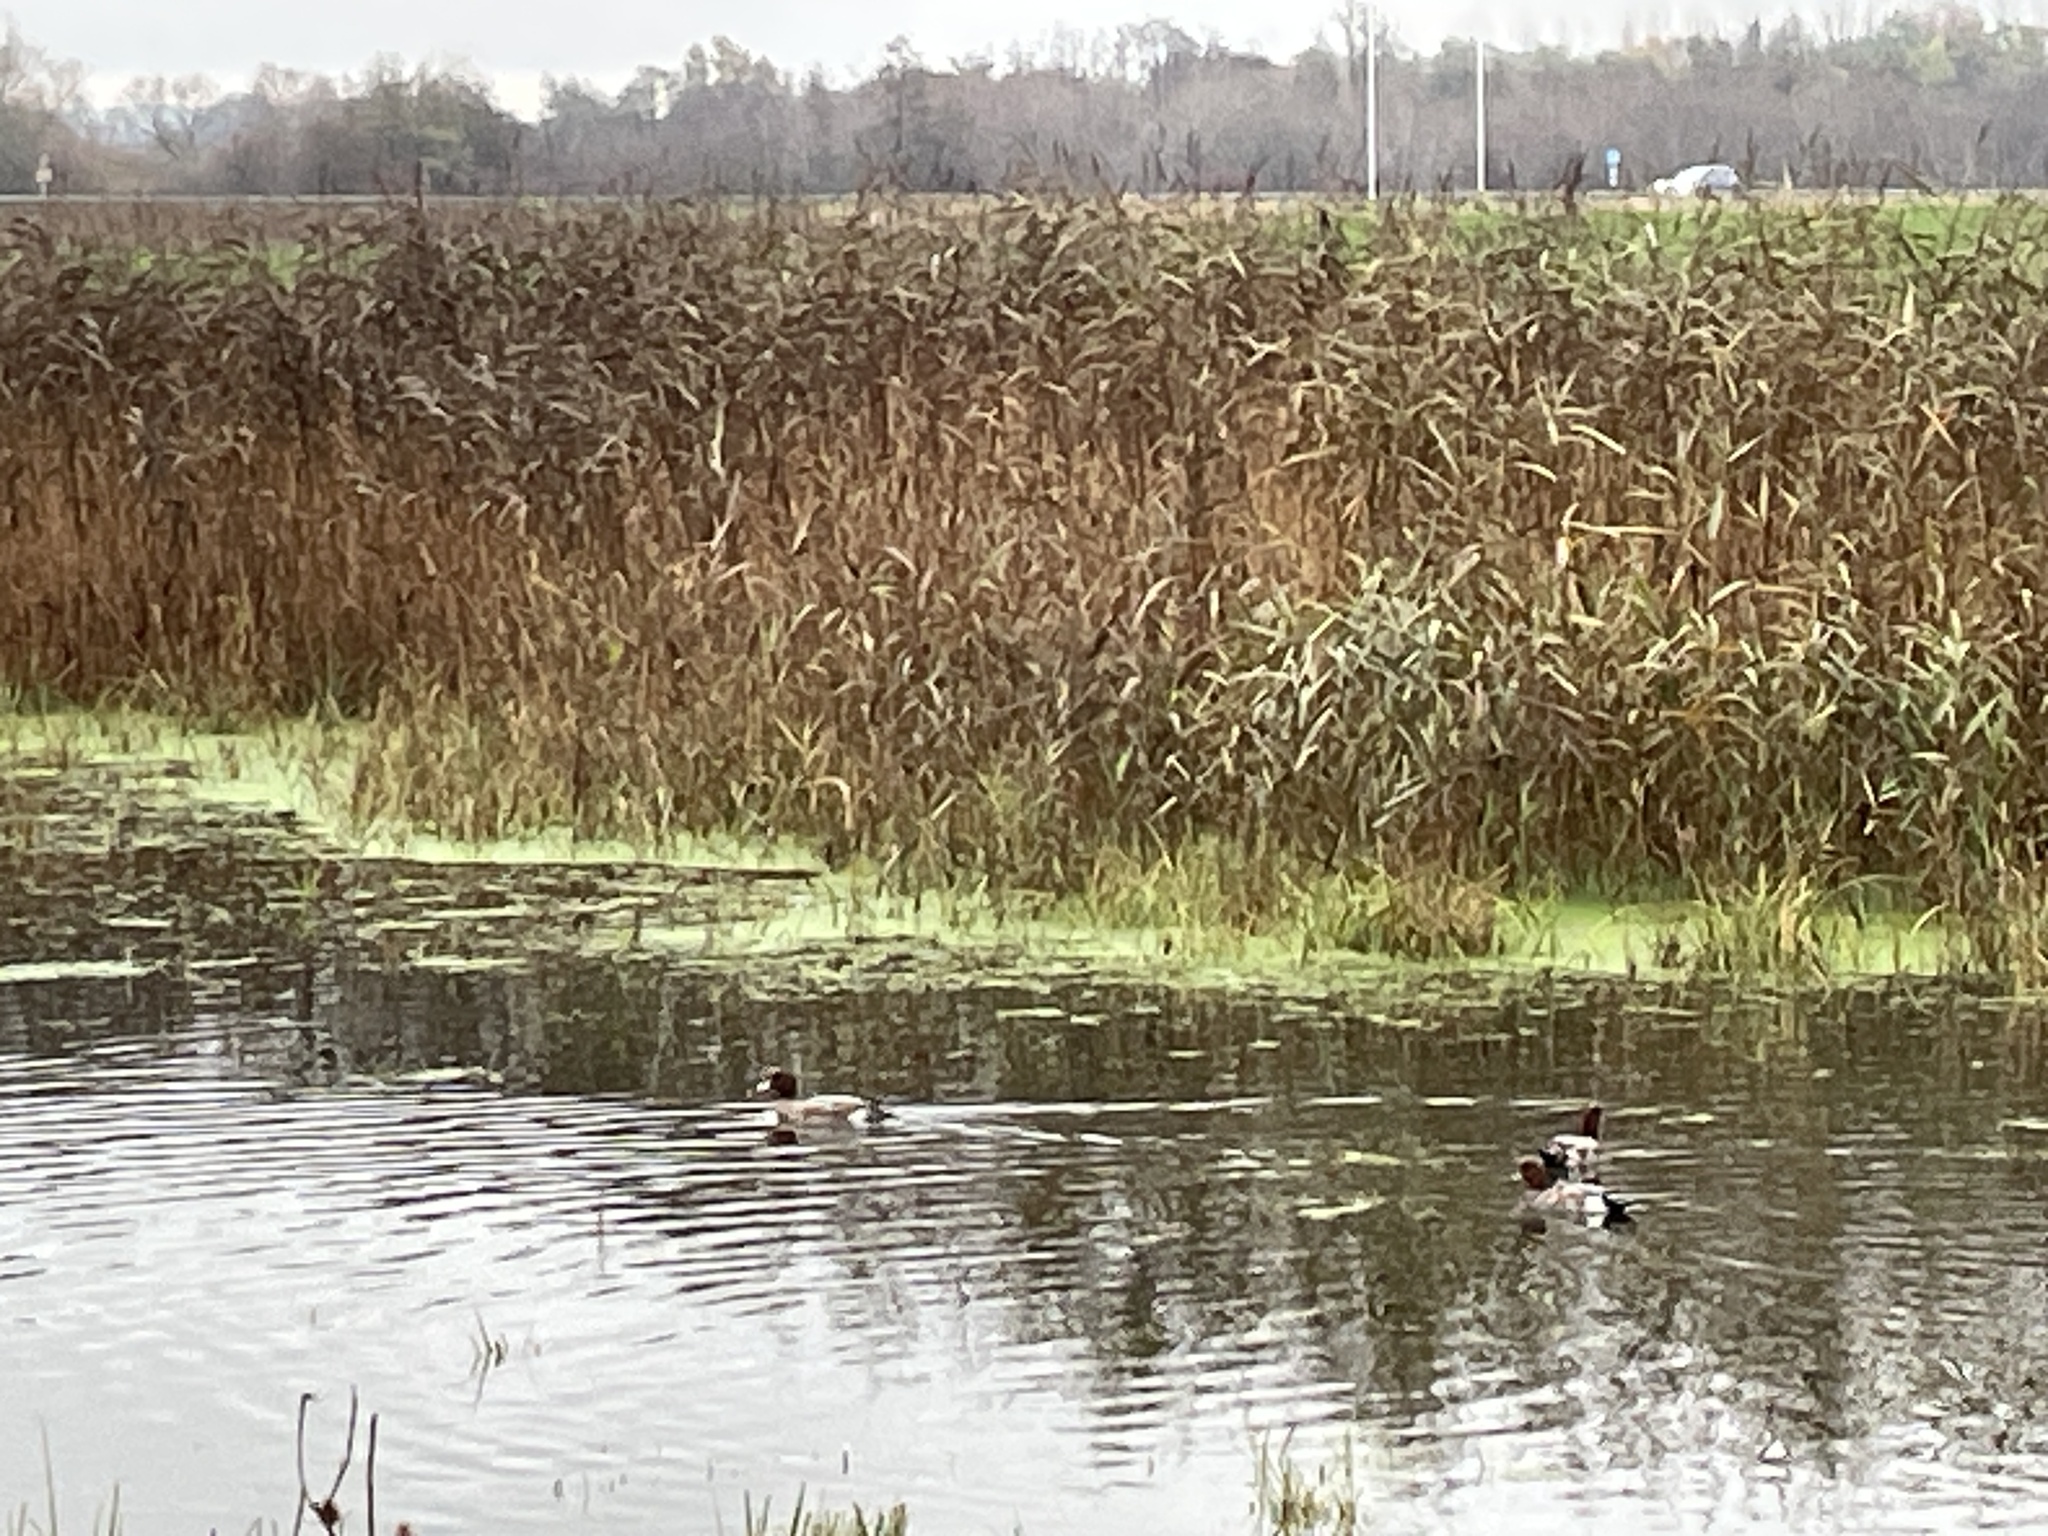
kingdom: Animalia
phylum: Chordata
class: Aves
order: Anseriformes
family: Anatidae
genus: Mareca
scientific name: Mareca penelope
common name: Eurasian wigeon
